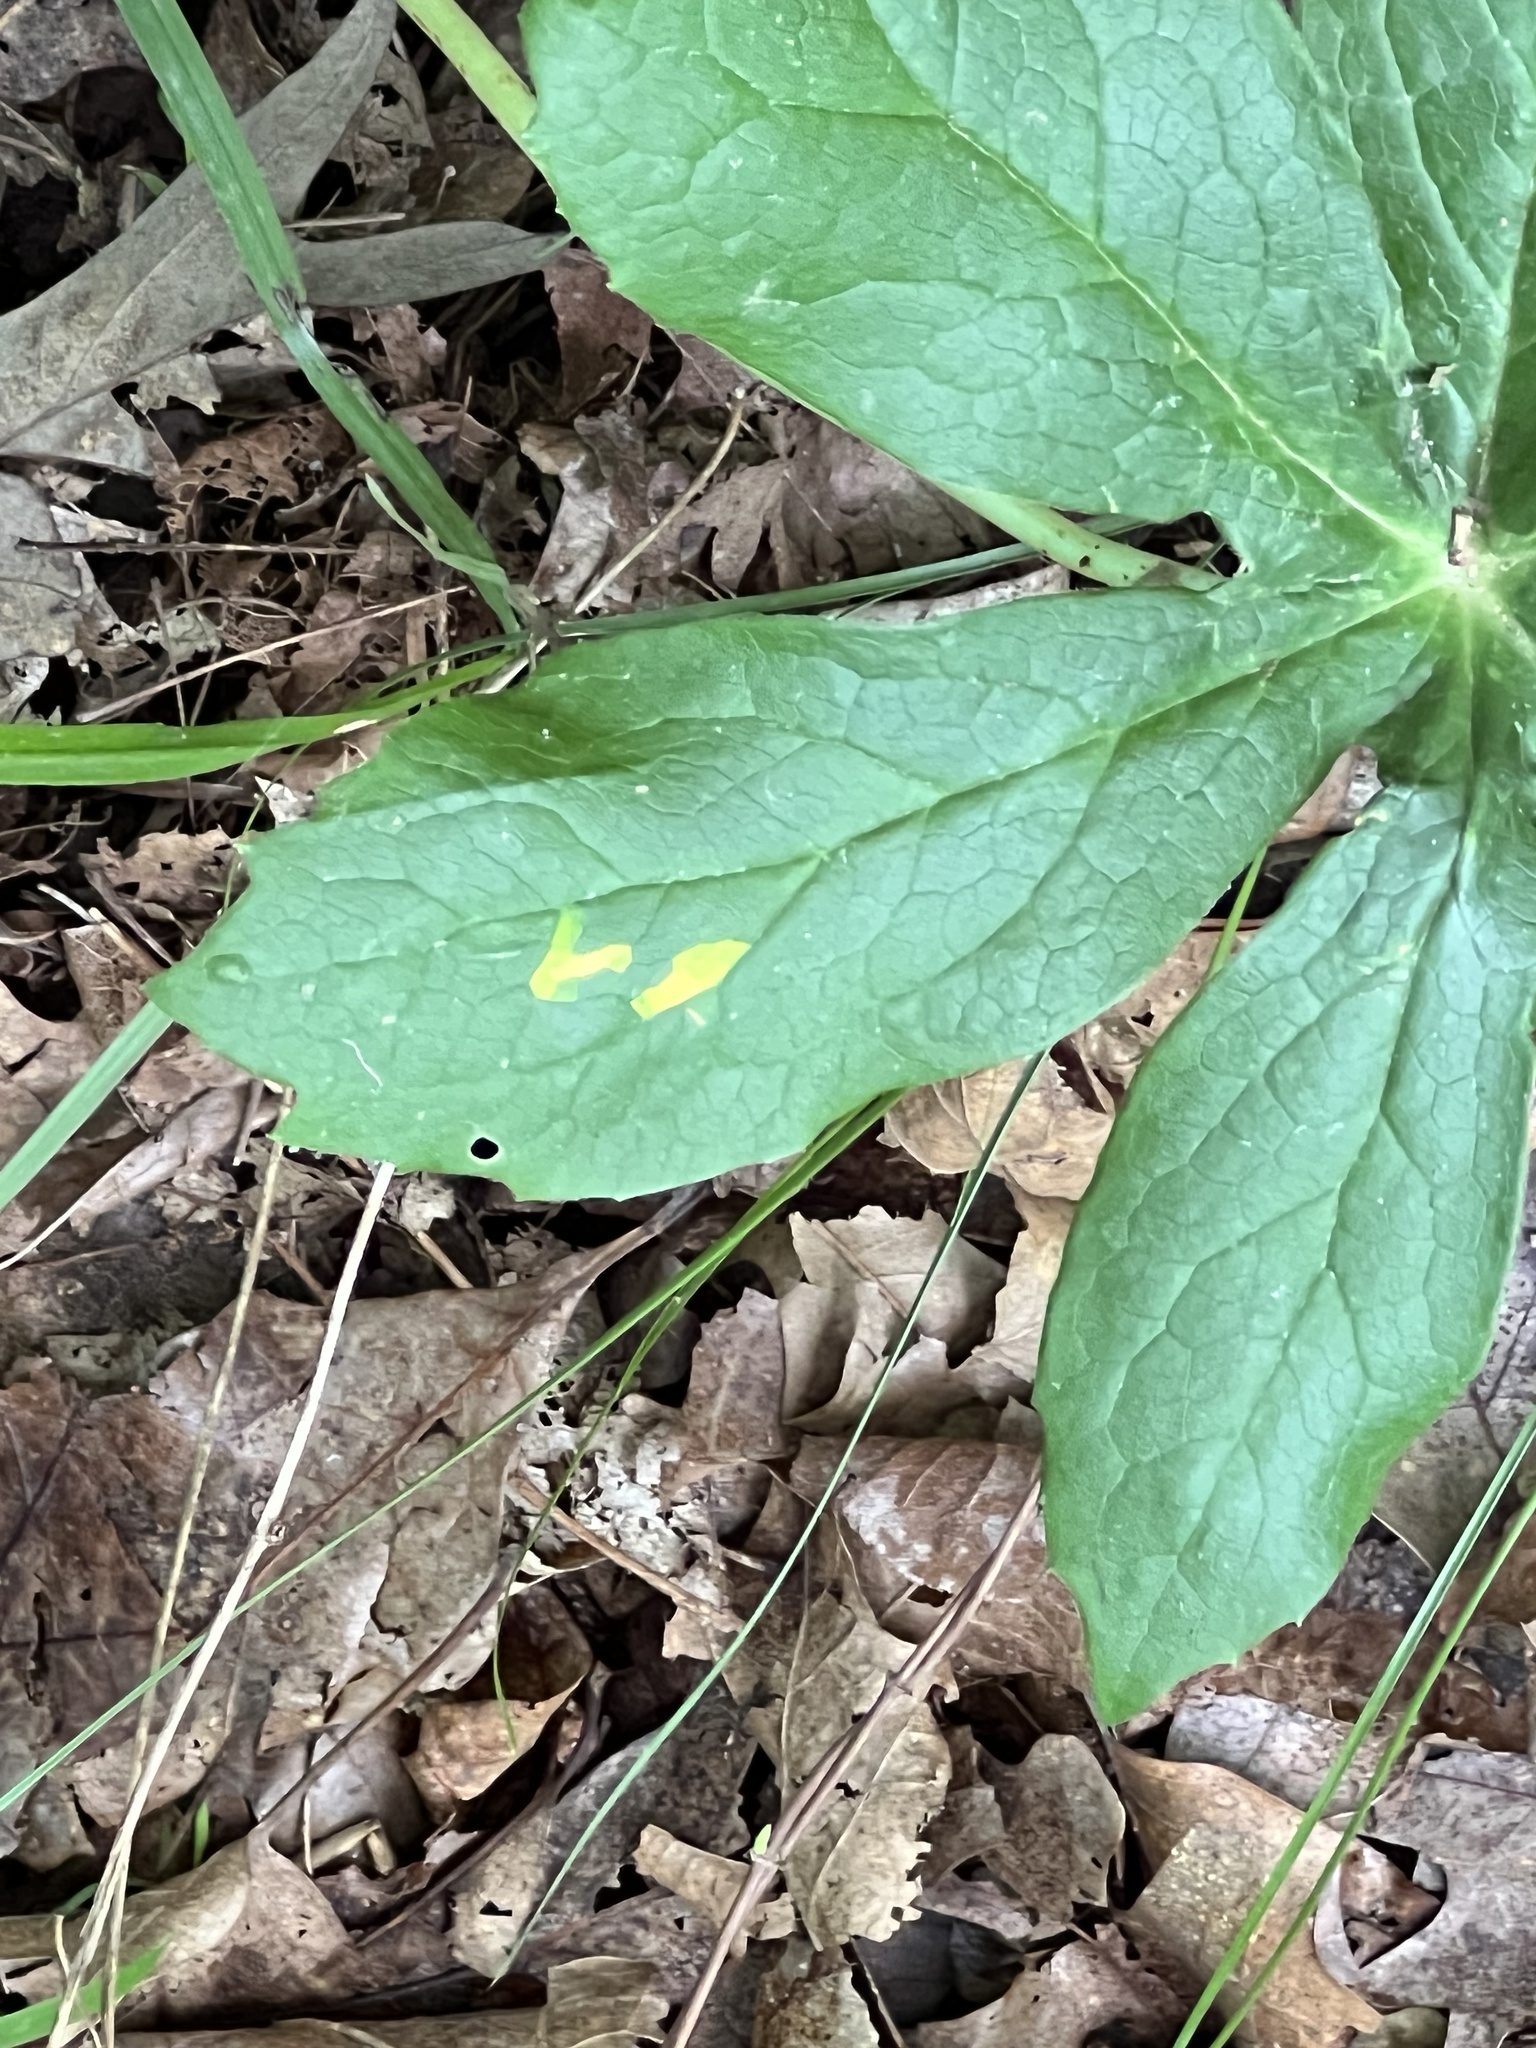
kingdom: Fungi
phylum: Basidiomycota
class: Pucciniomycetes
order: Pucciniales
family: Pucciniaceae
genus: Puccinia
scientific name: Puccinia podophylli
